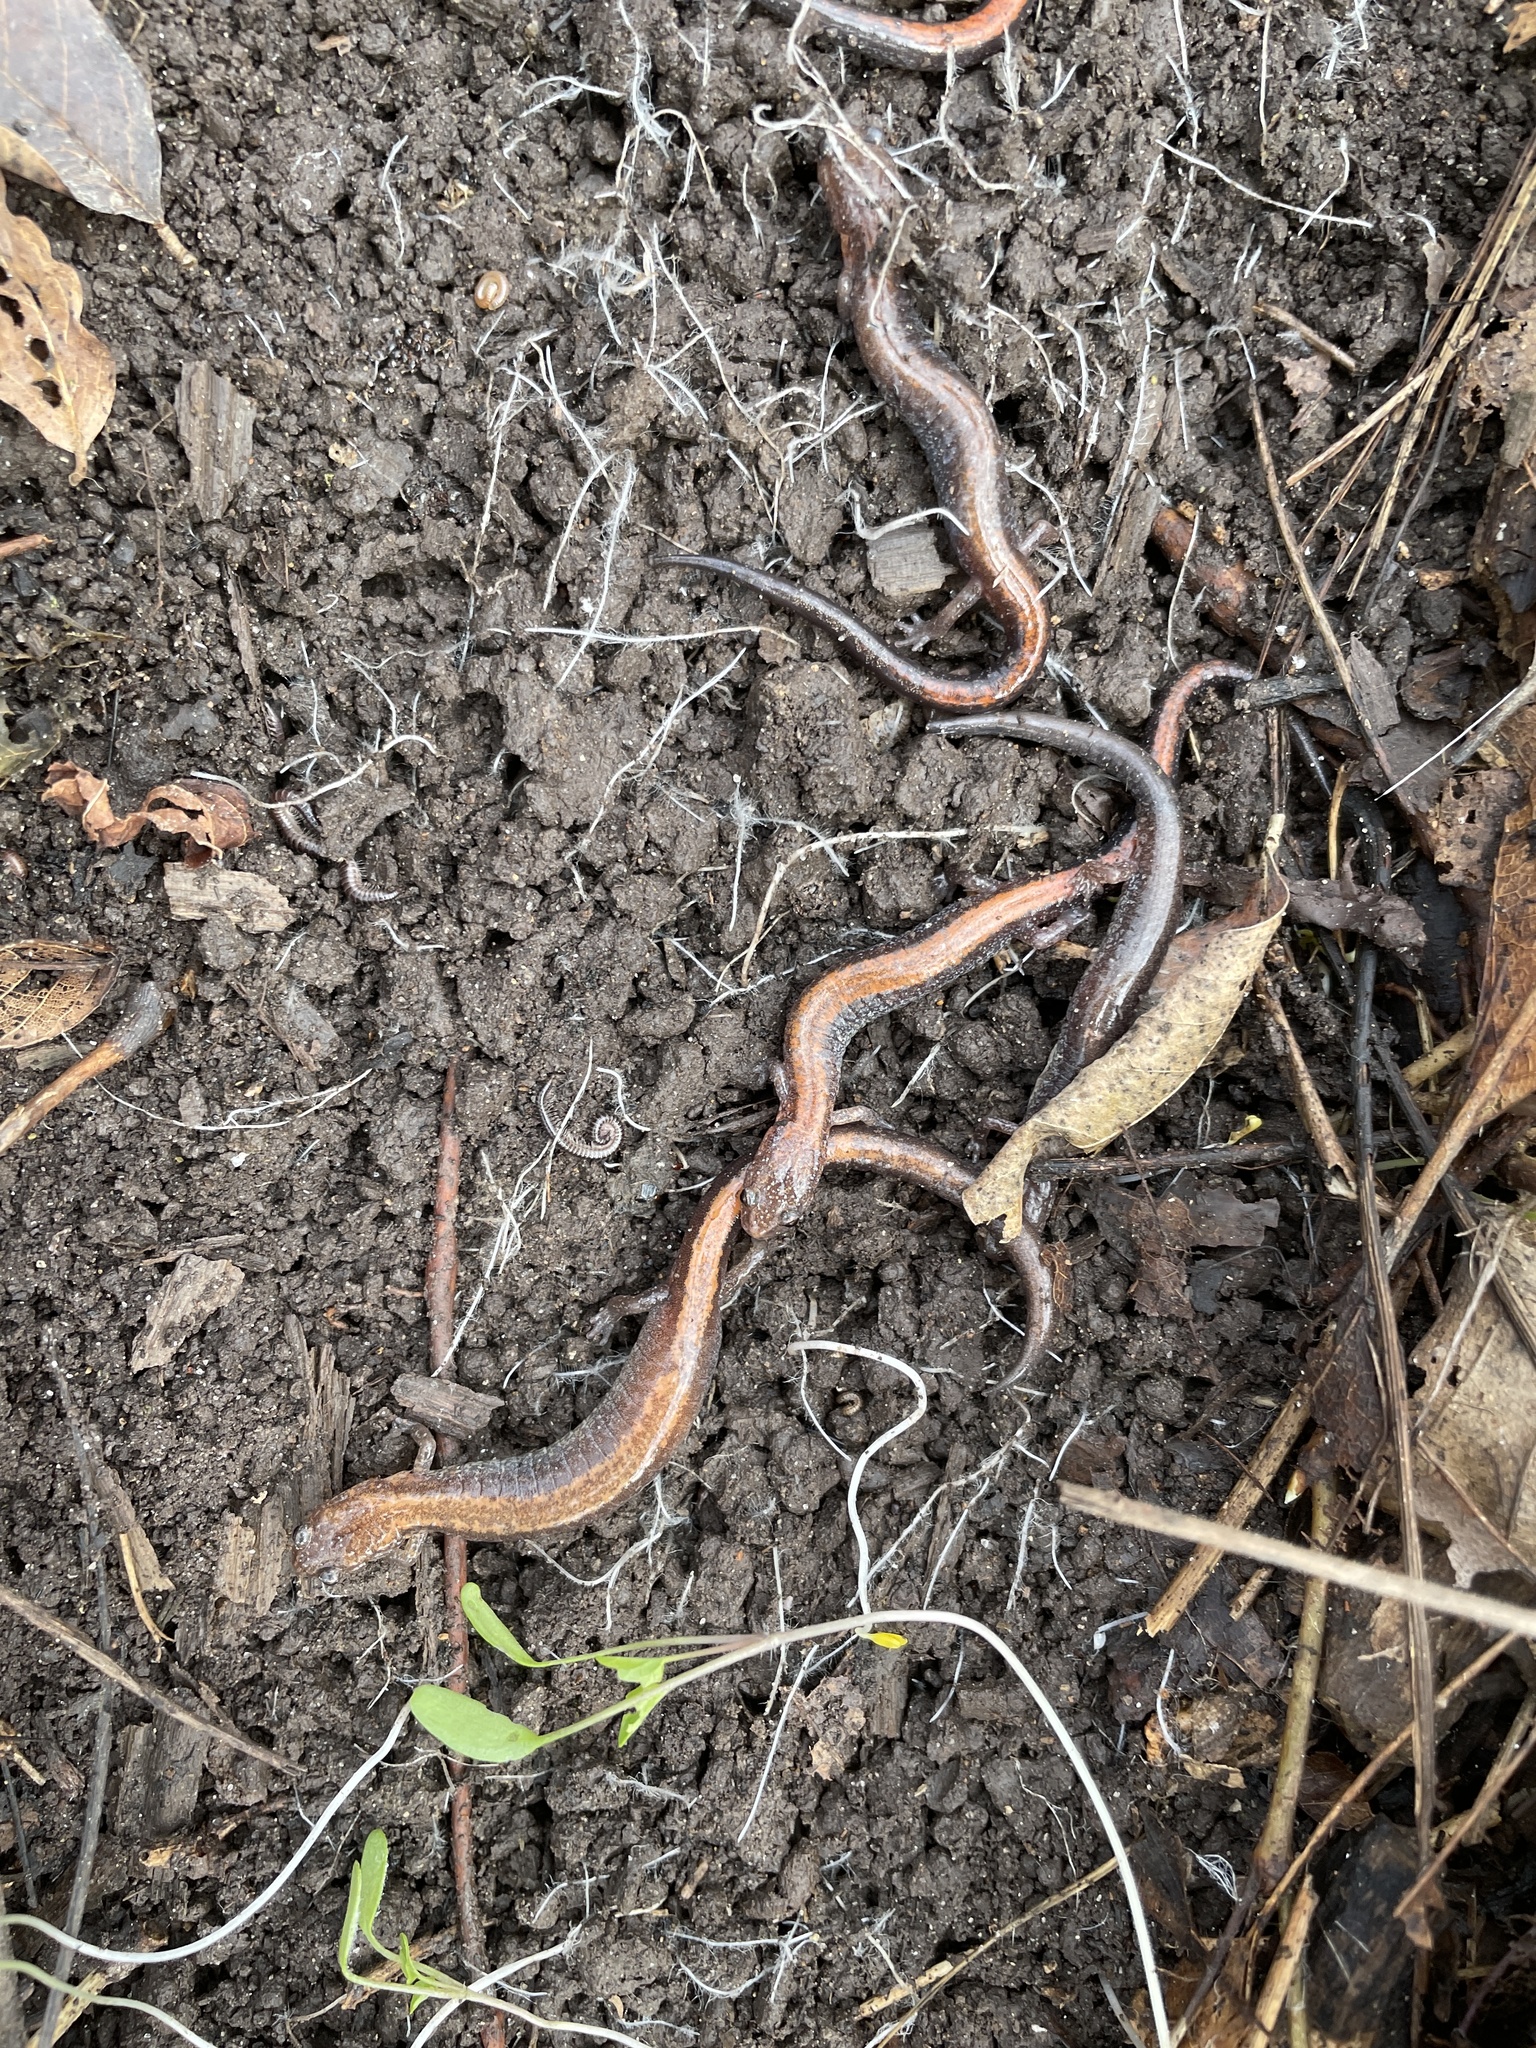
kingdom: Animalia
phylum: Chordata
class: Amphibia
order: Caudata
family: Plethodontidae
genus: Plethodon
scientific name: Plethodon cinereus
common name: Redback salamander
